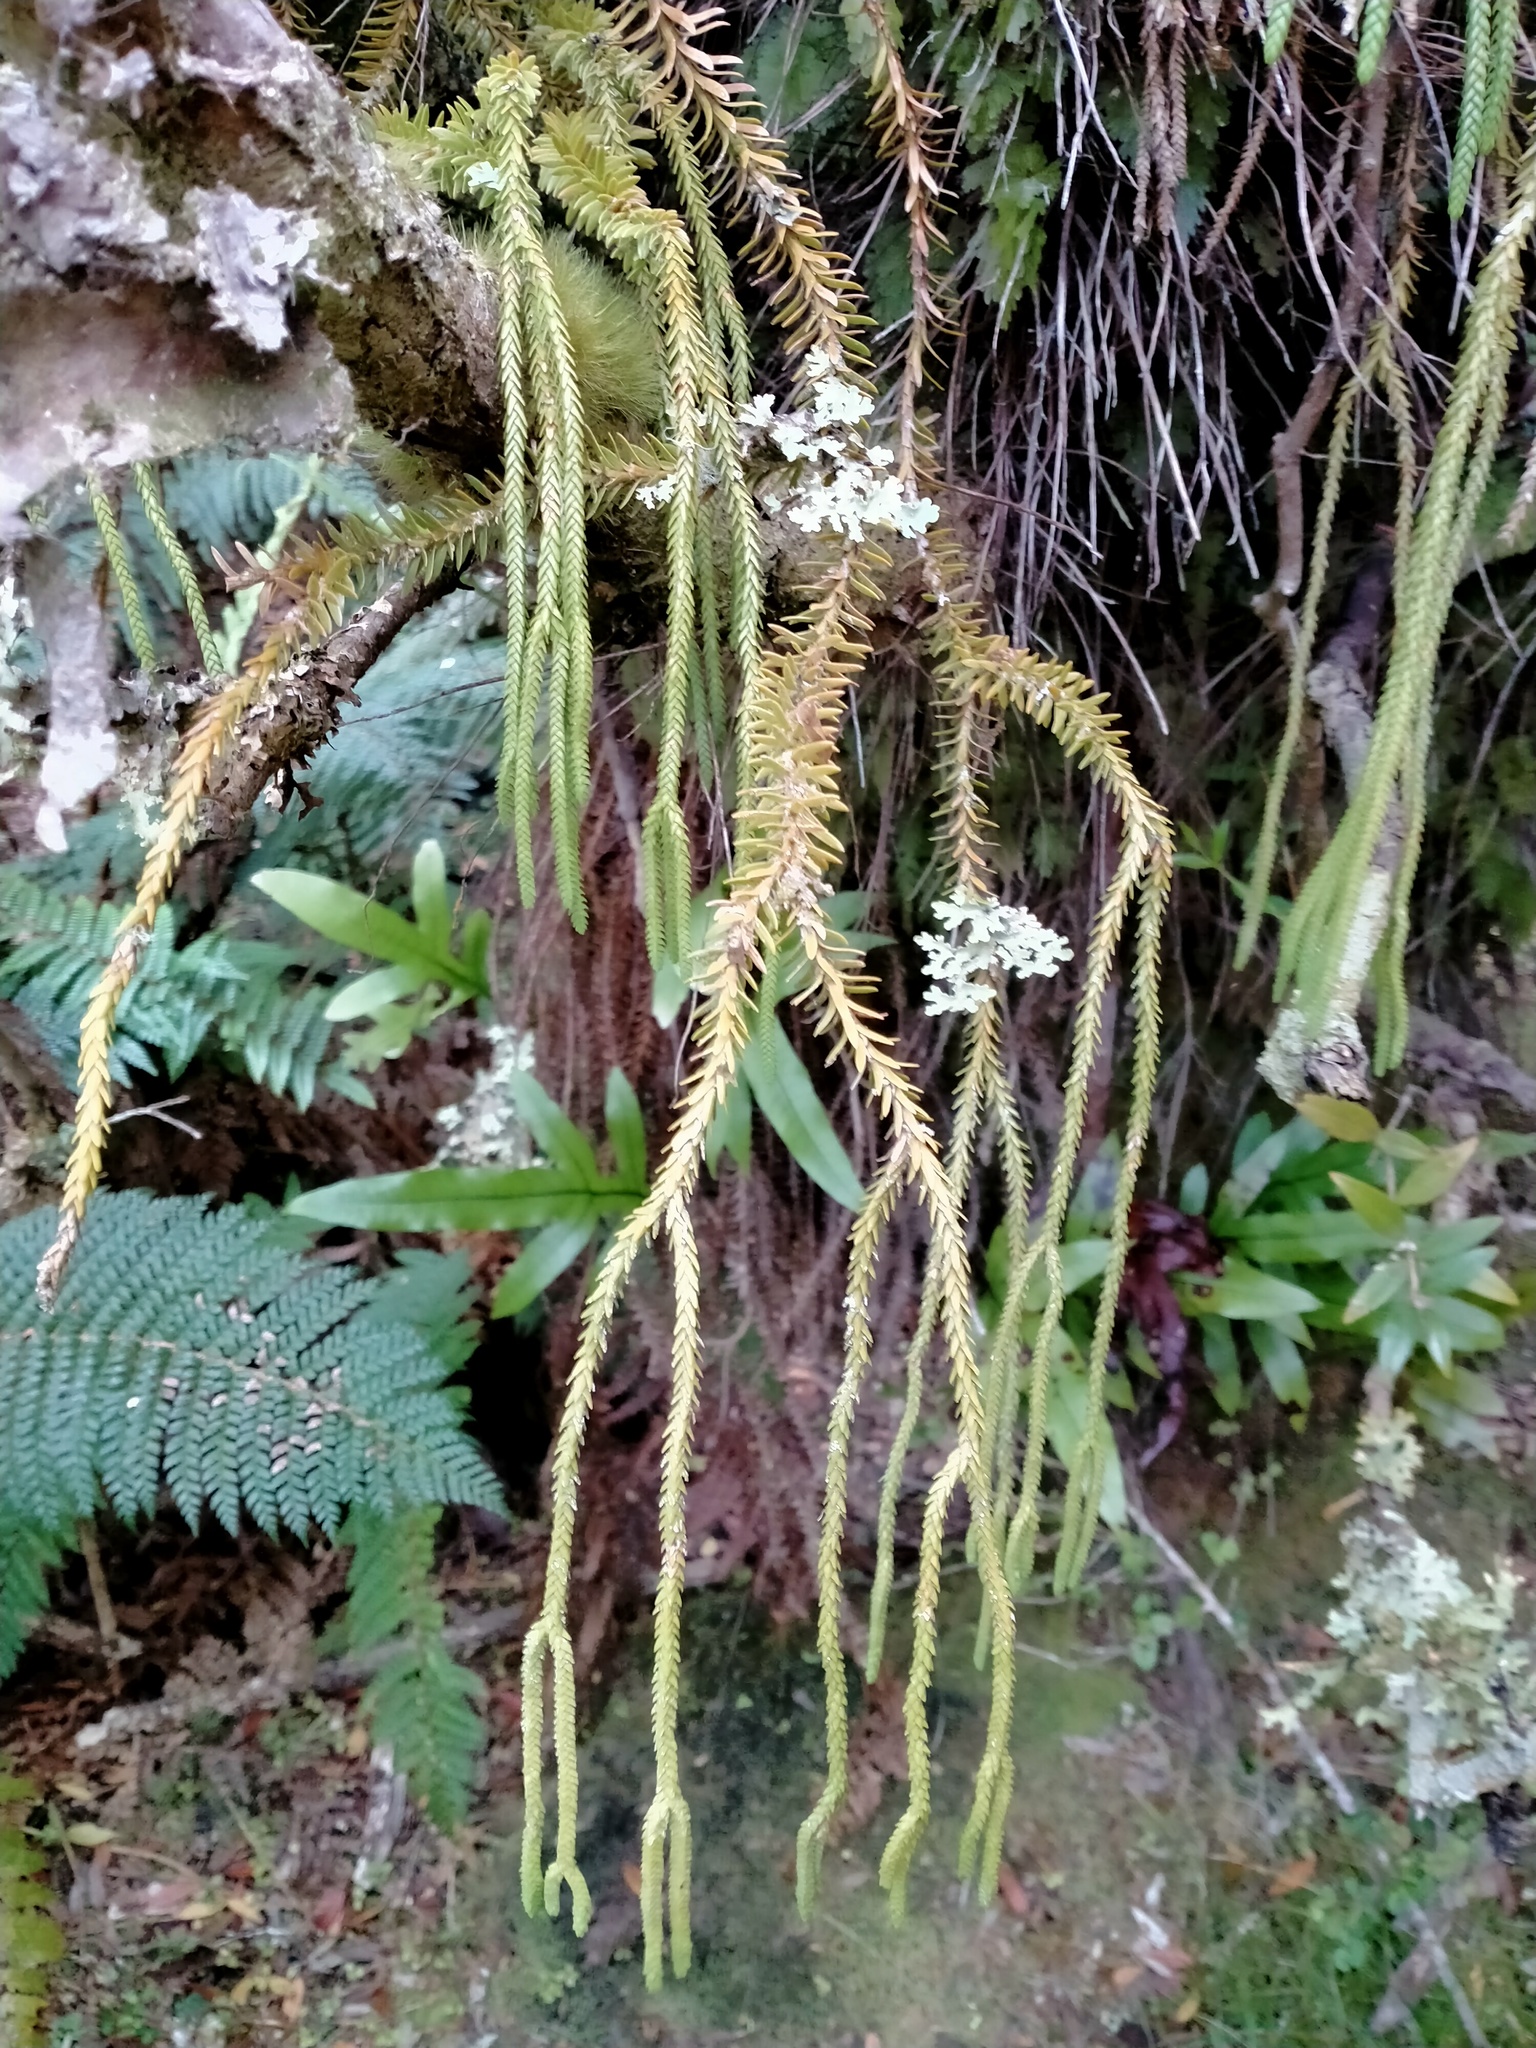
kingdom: Plantae
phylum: Tracheophyta
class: Lycopodiopsida
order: Lycopodiales
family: Lycopodiaceae
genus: Phlegmariurus
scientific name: Phlegmariurus varius
